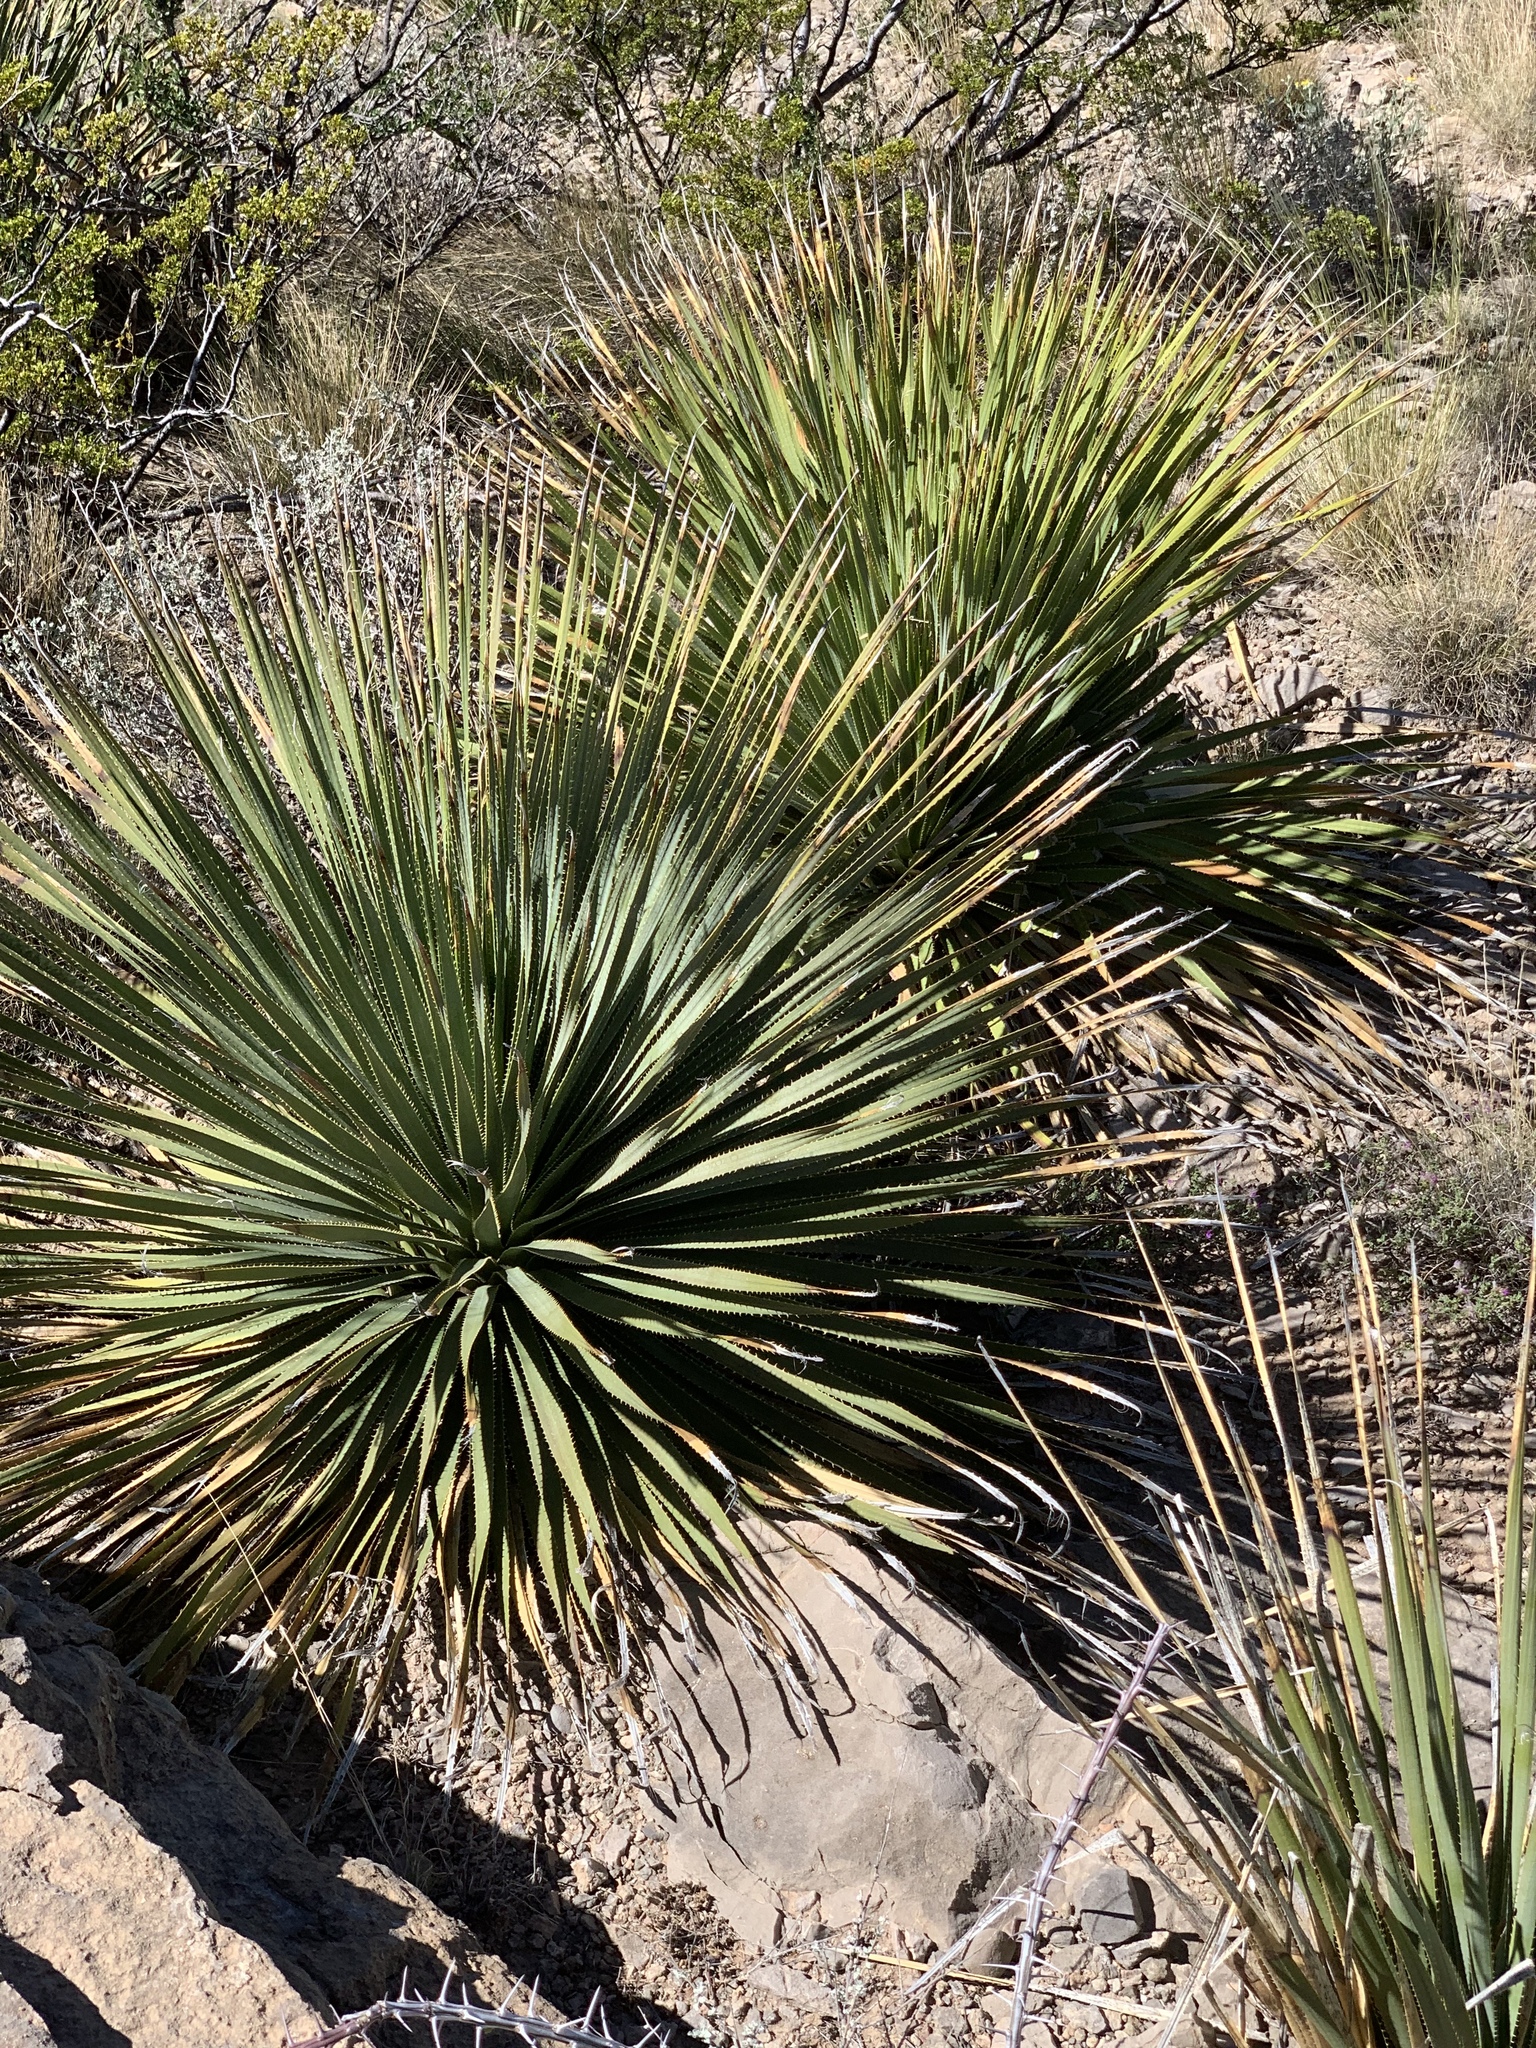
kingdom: Plantae
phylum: Tracheophyta
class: Liliopsida
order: Asparagales
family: Asparagaceae
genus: Dasylirion
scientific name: Dasylirion wheeleri
